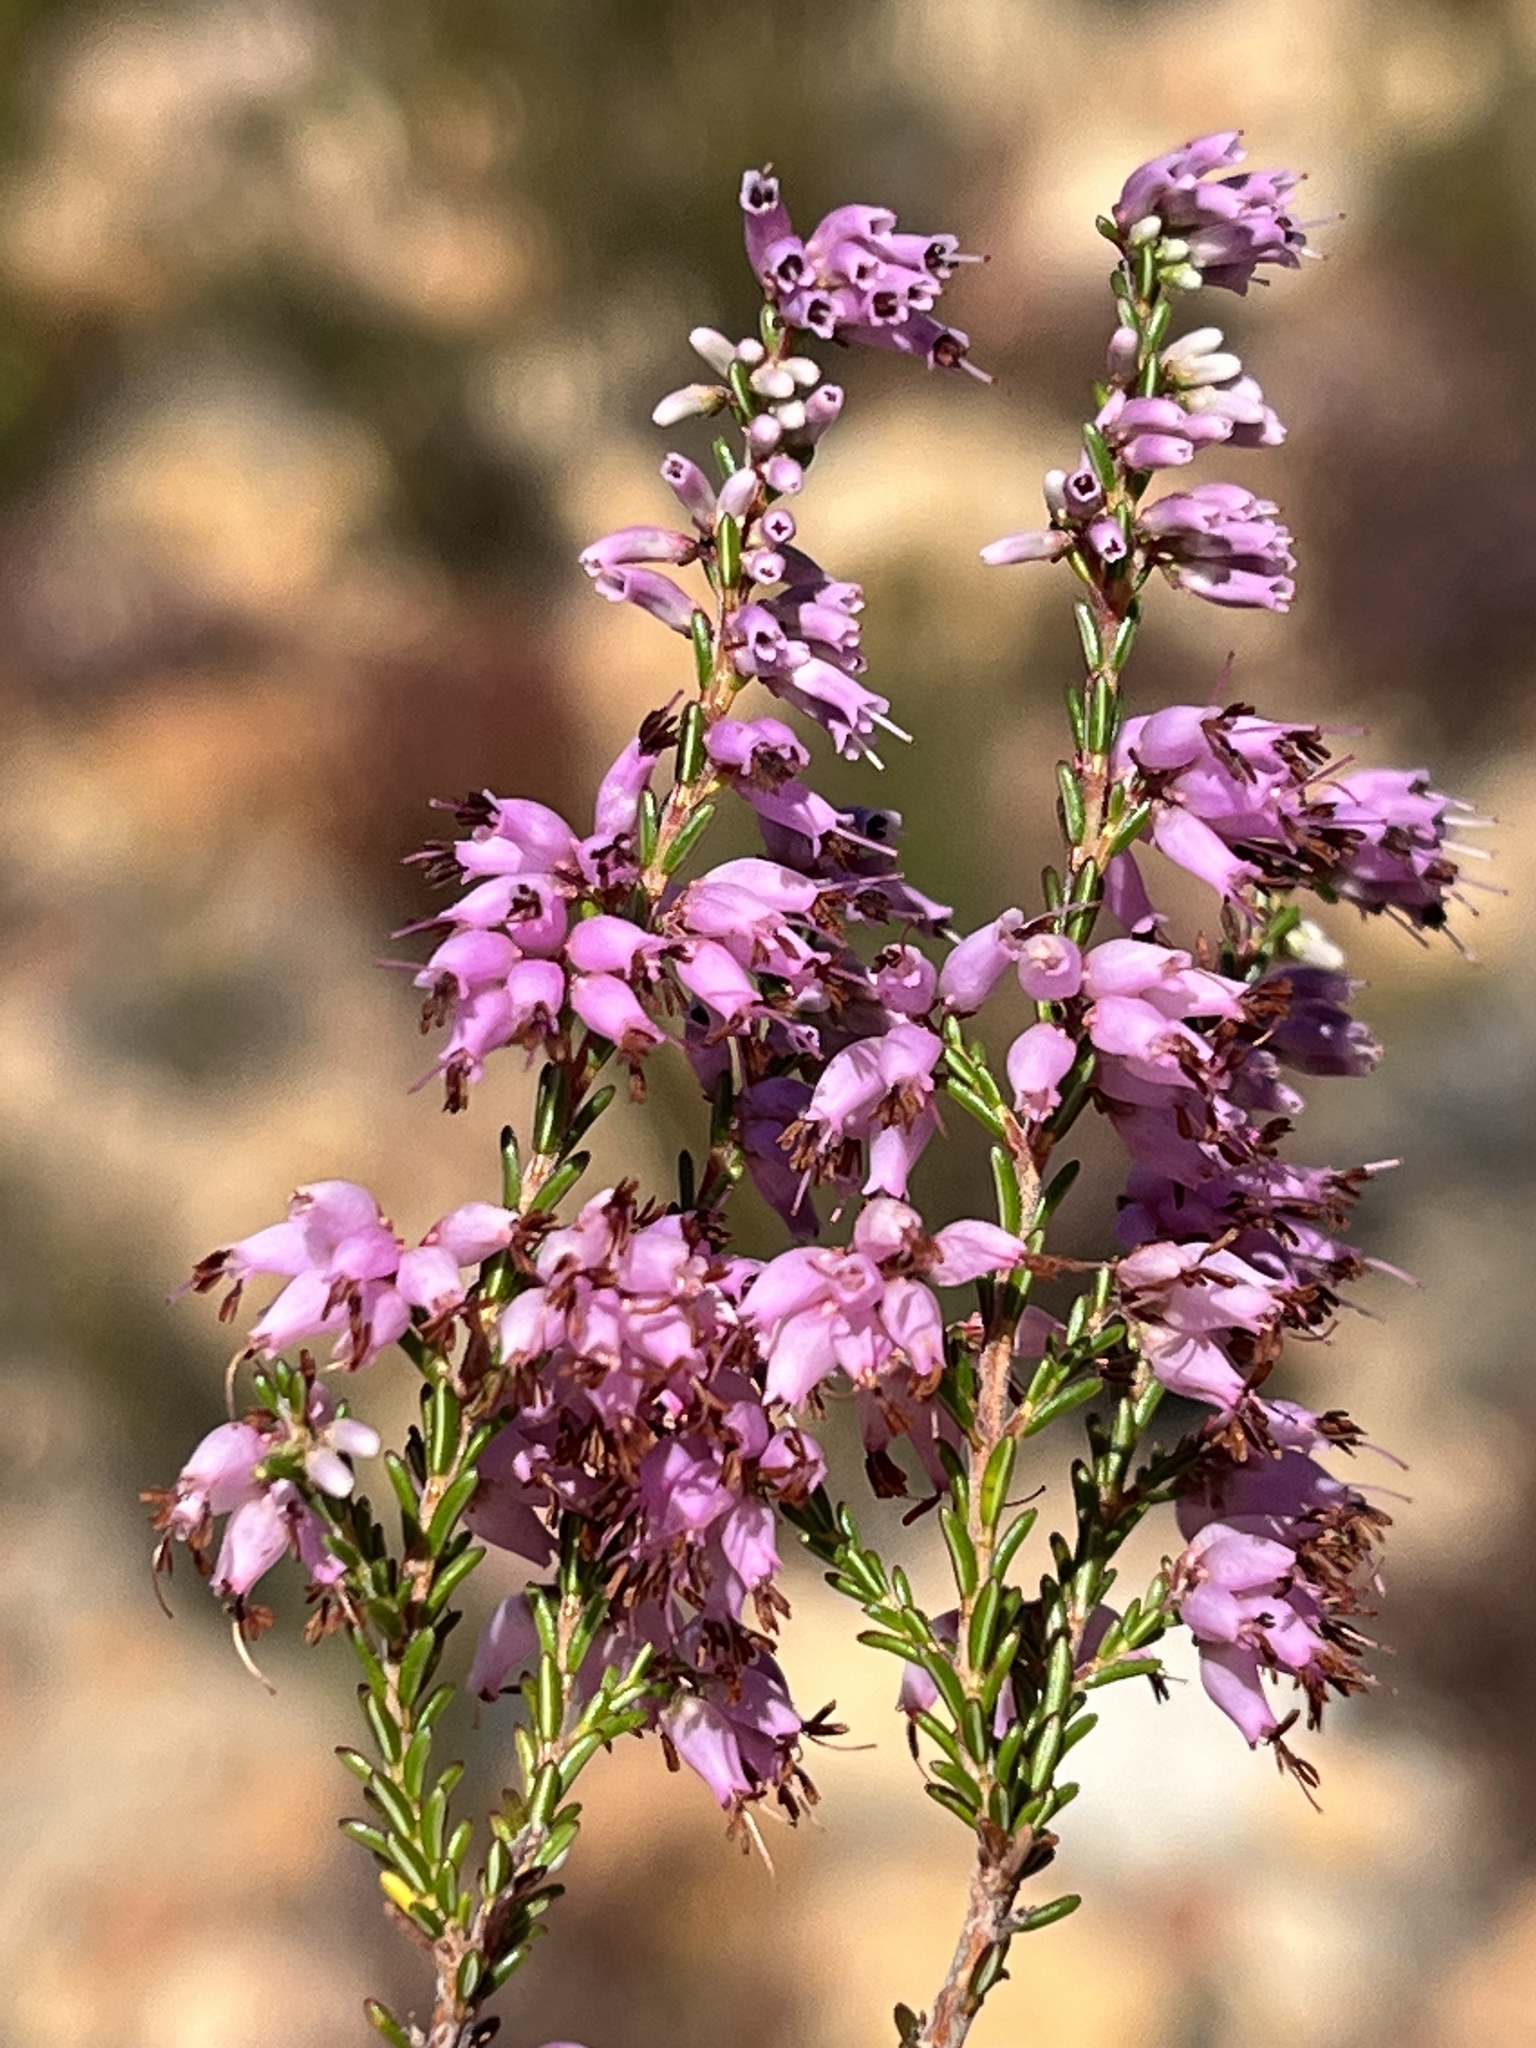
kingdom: Plantae
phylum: Tracheophyta
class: Magnoliopsida
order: Ericales
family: Ericaceae
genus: Erica
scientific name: Erica rosacea
